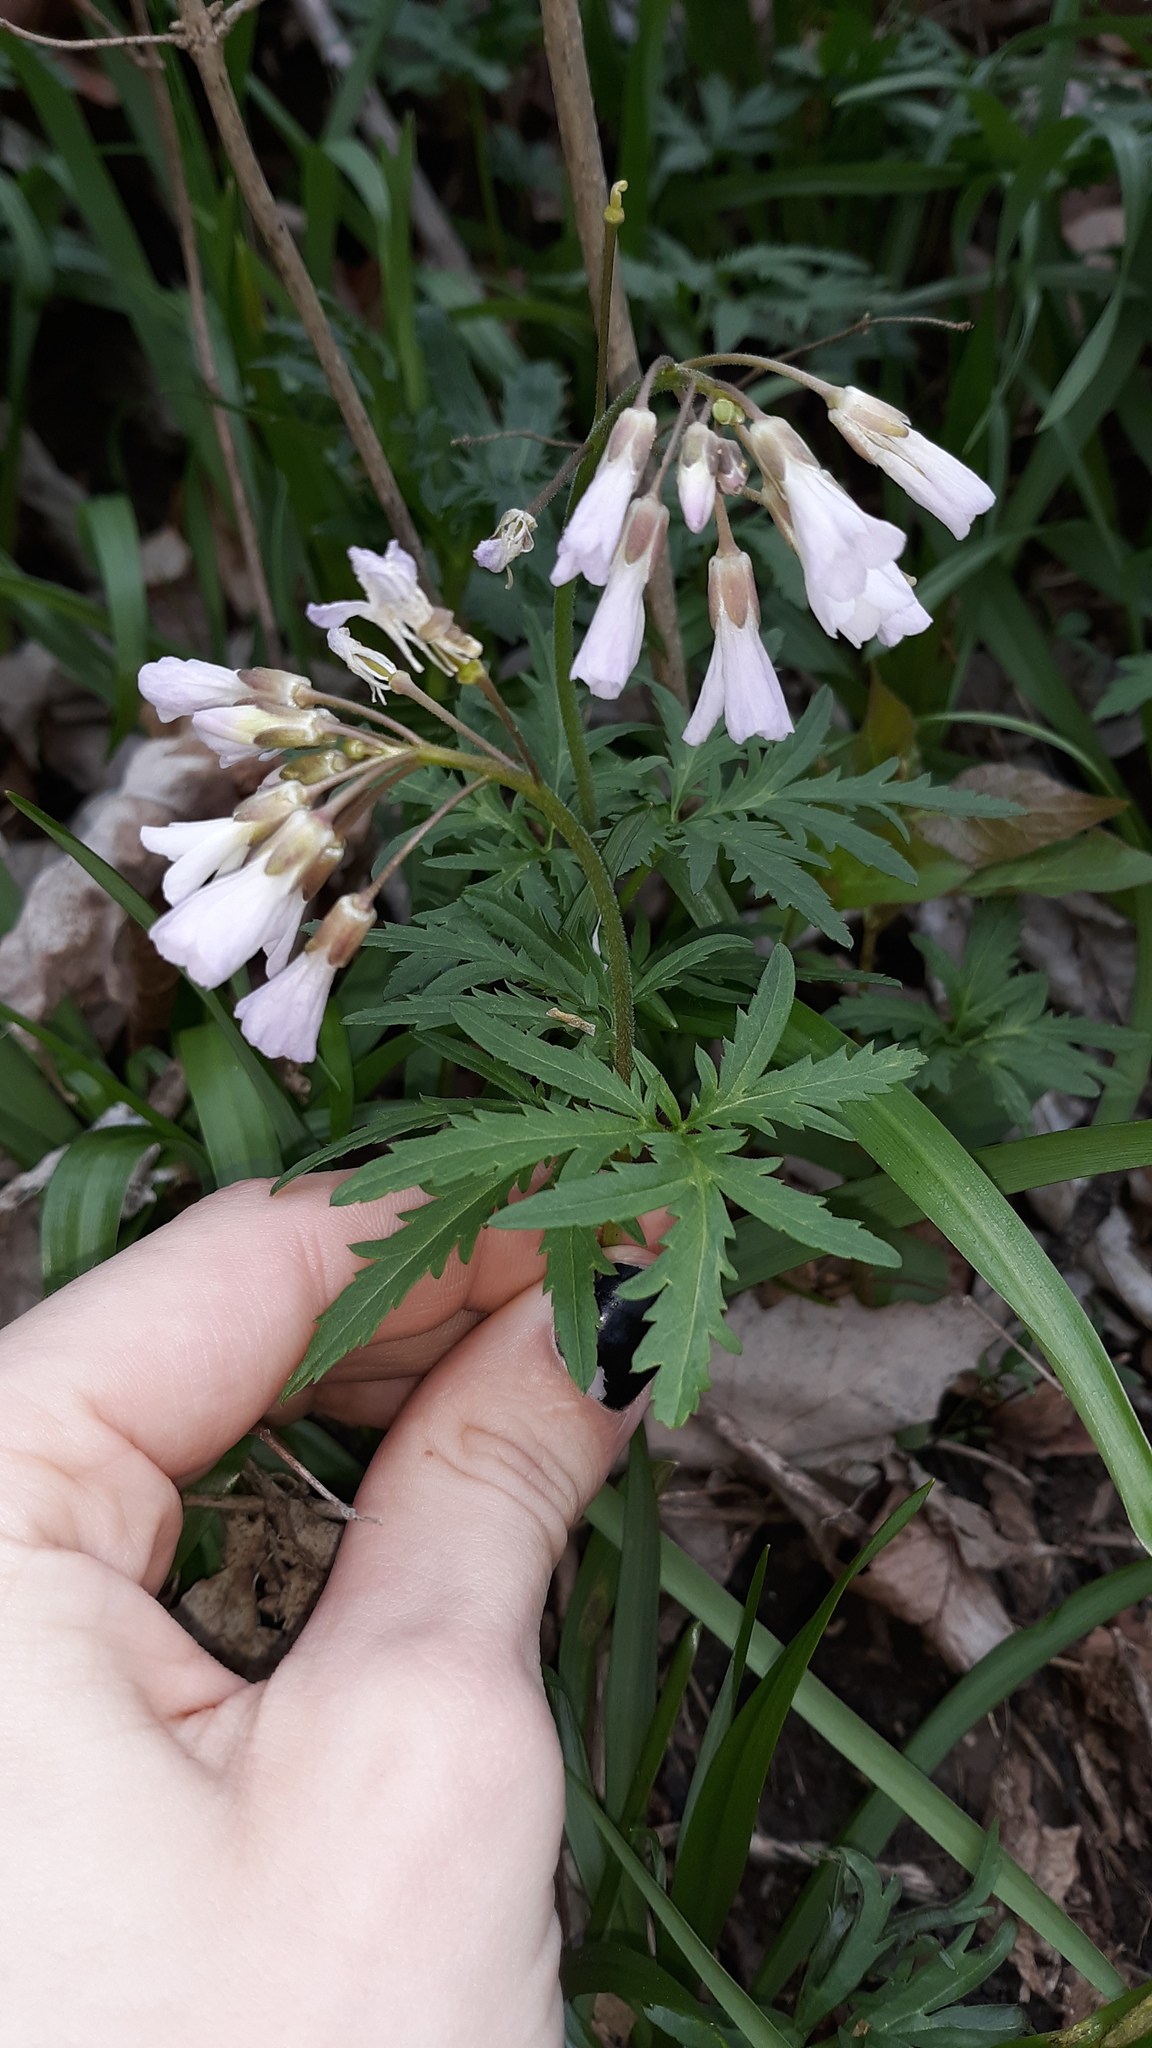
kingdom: Plantae
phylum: Tracheophyta
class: Magnoliopsida
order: Brassicales
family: Brassicaceae
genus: Cardamine
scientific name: Cardamine concatenata
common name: Cut-leaf toothcup
